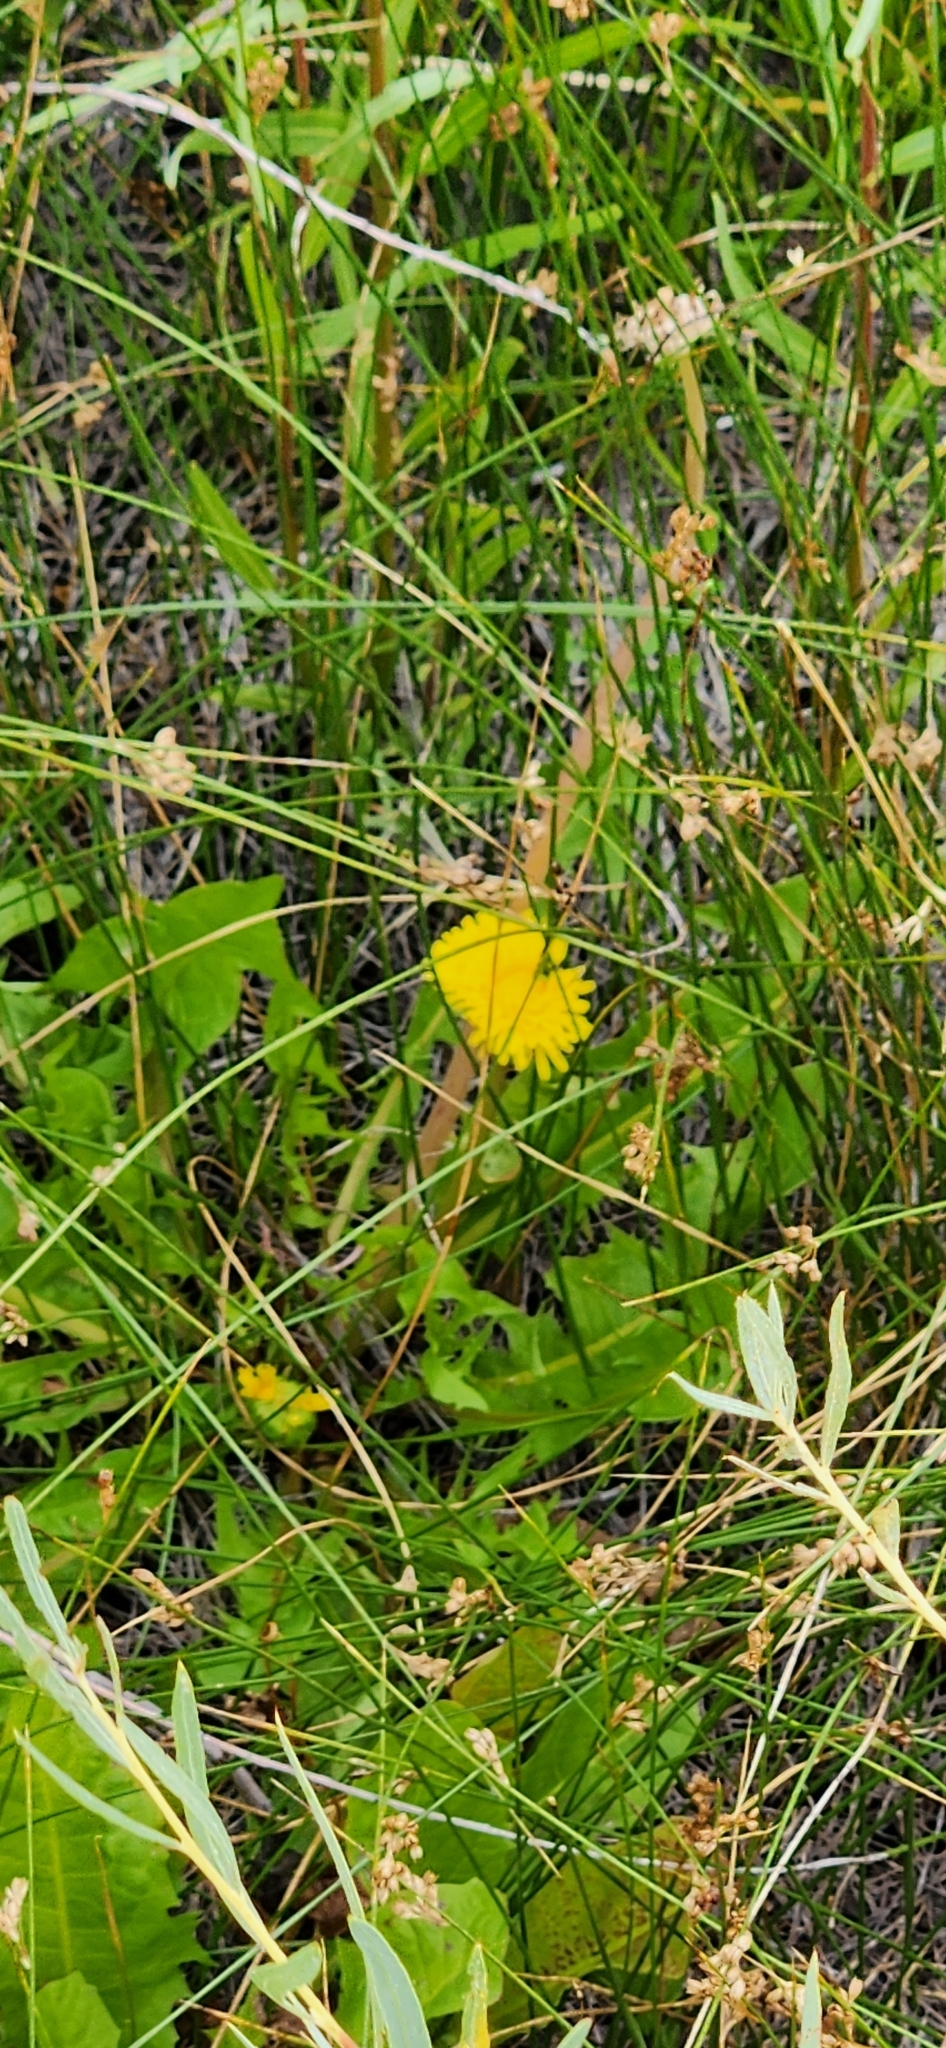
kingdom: Plantae
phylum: Tracheophyta
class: Magnoliopsida
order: Asterales
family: Asteraceae
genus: Taraxacum
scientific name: Taraxacum officinale
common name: Common dandelion
